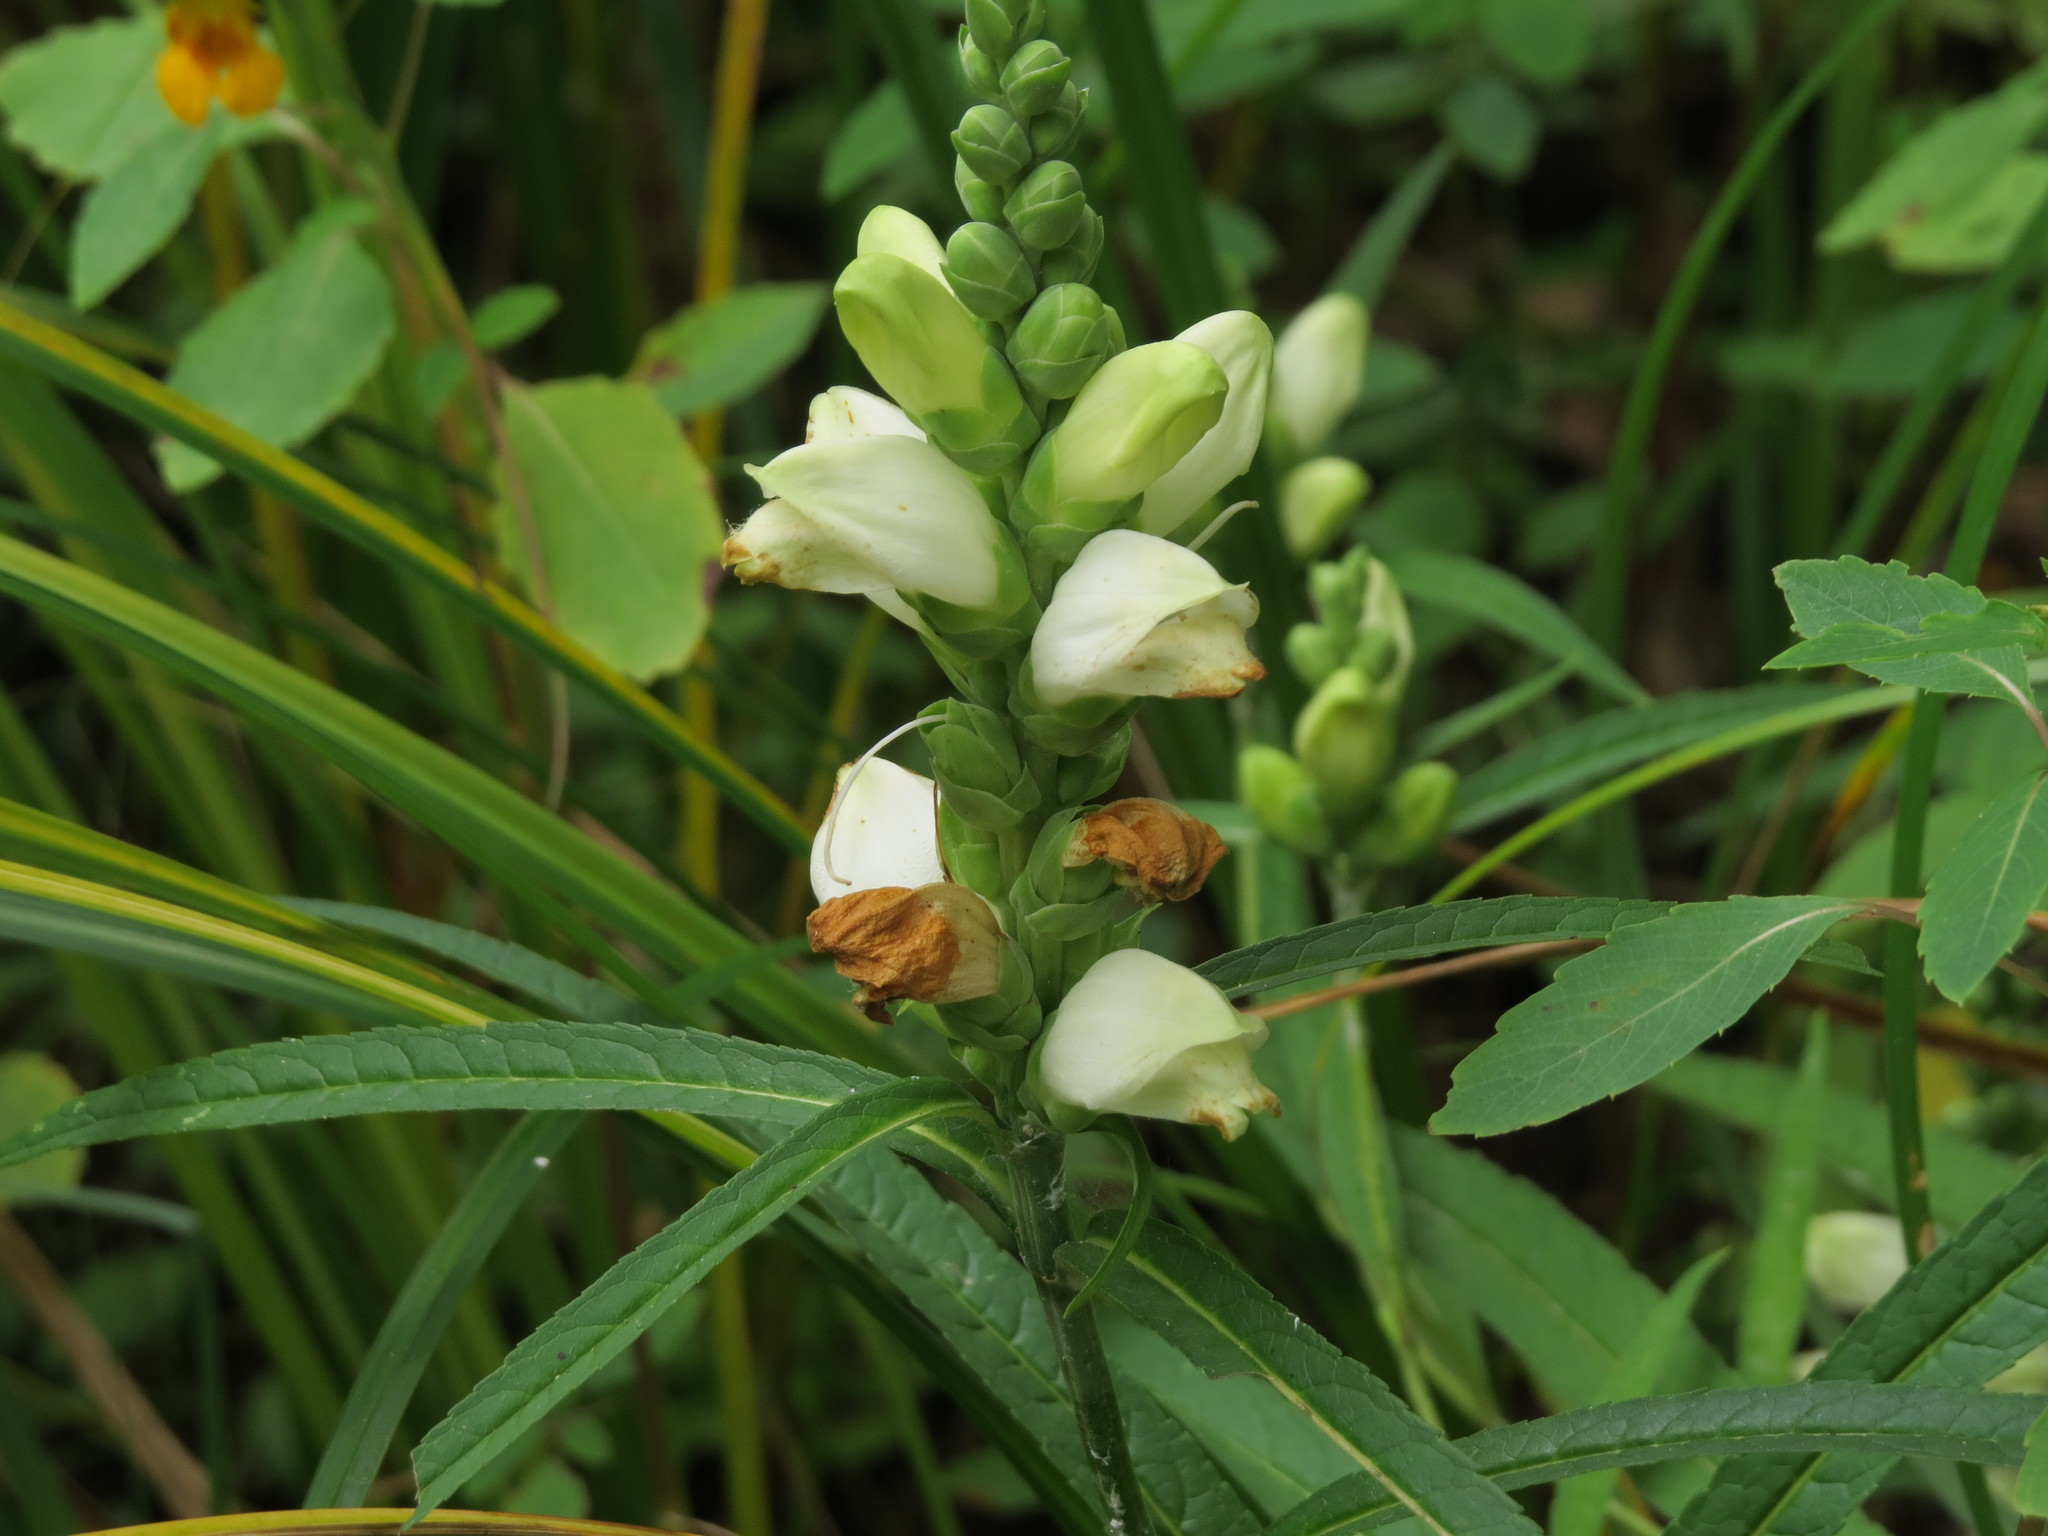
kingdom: Plantae
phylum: Tracheophyta
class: Magnoliopsida
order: Lamiales
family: Plantaginaceae
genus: Chelone
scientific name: Chelone glabra
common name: Snakehead
